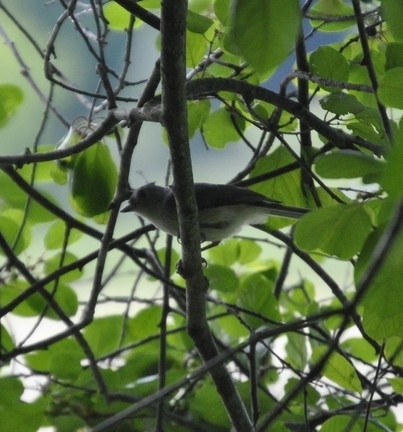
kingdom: Animalia
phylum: Chordata
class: Aves
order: Passeriformes
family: Paridae
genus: Baeolophus
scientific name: Baeolophus bicolor
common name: Tufted titmouse
